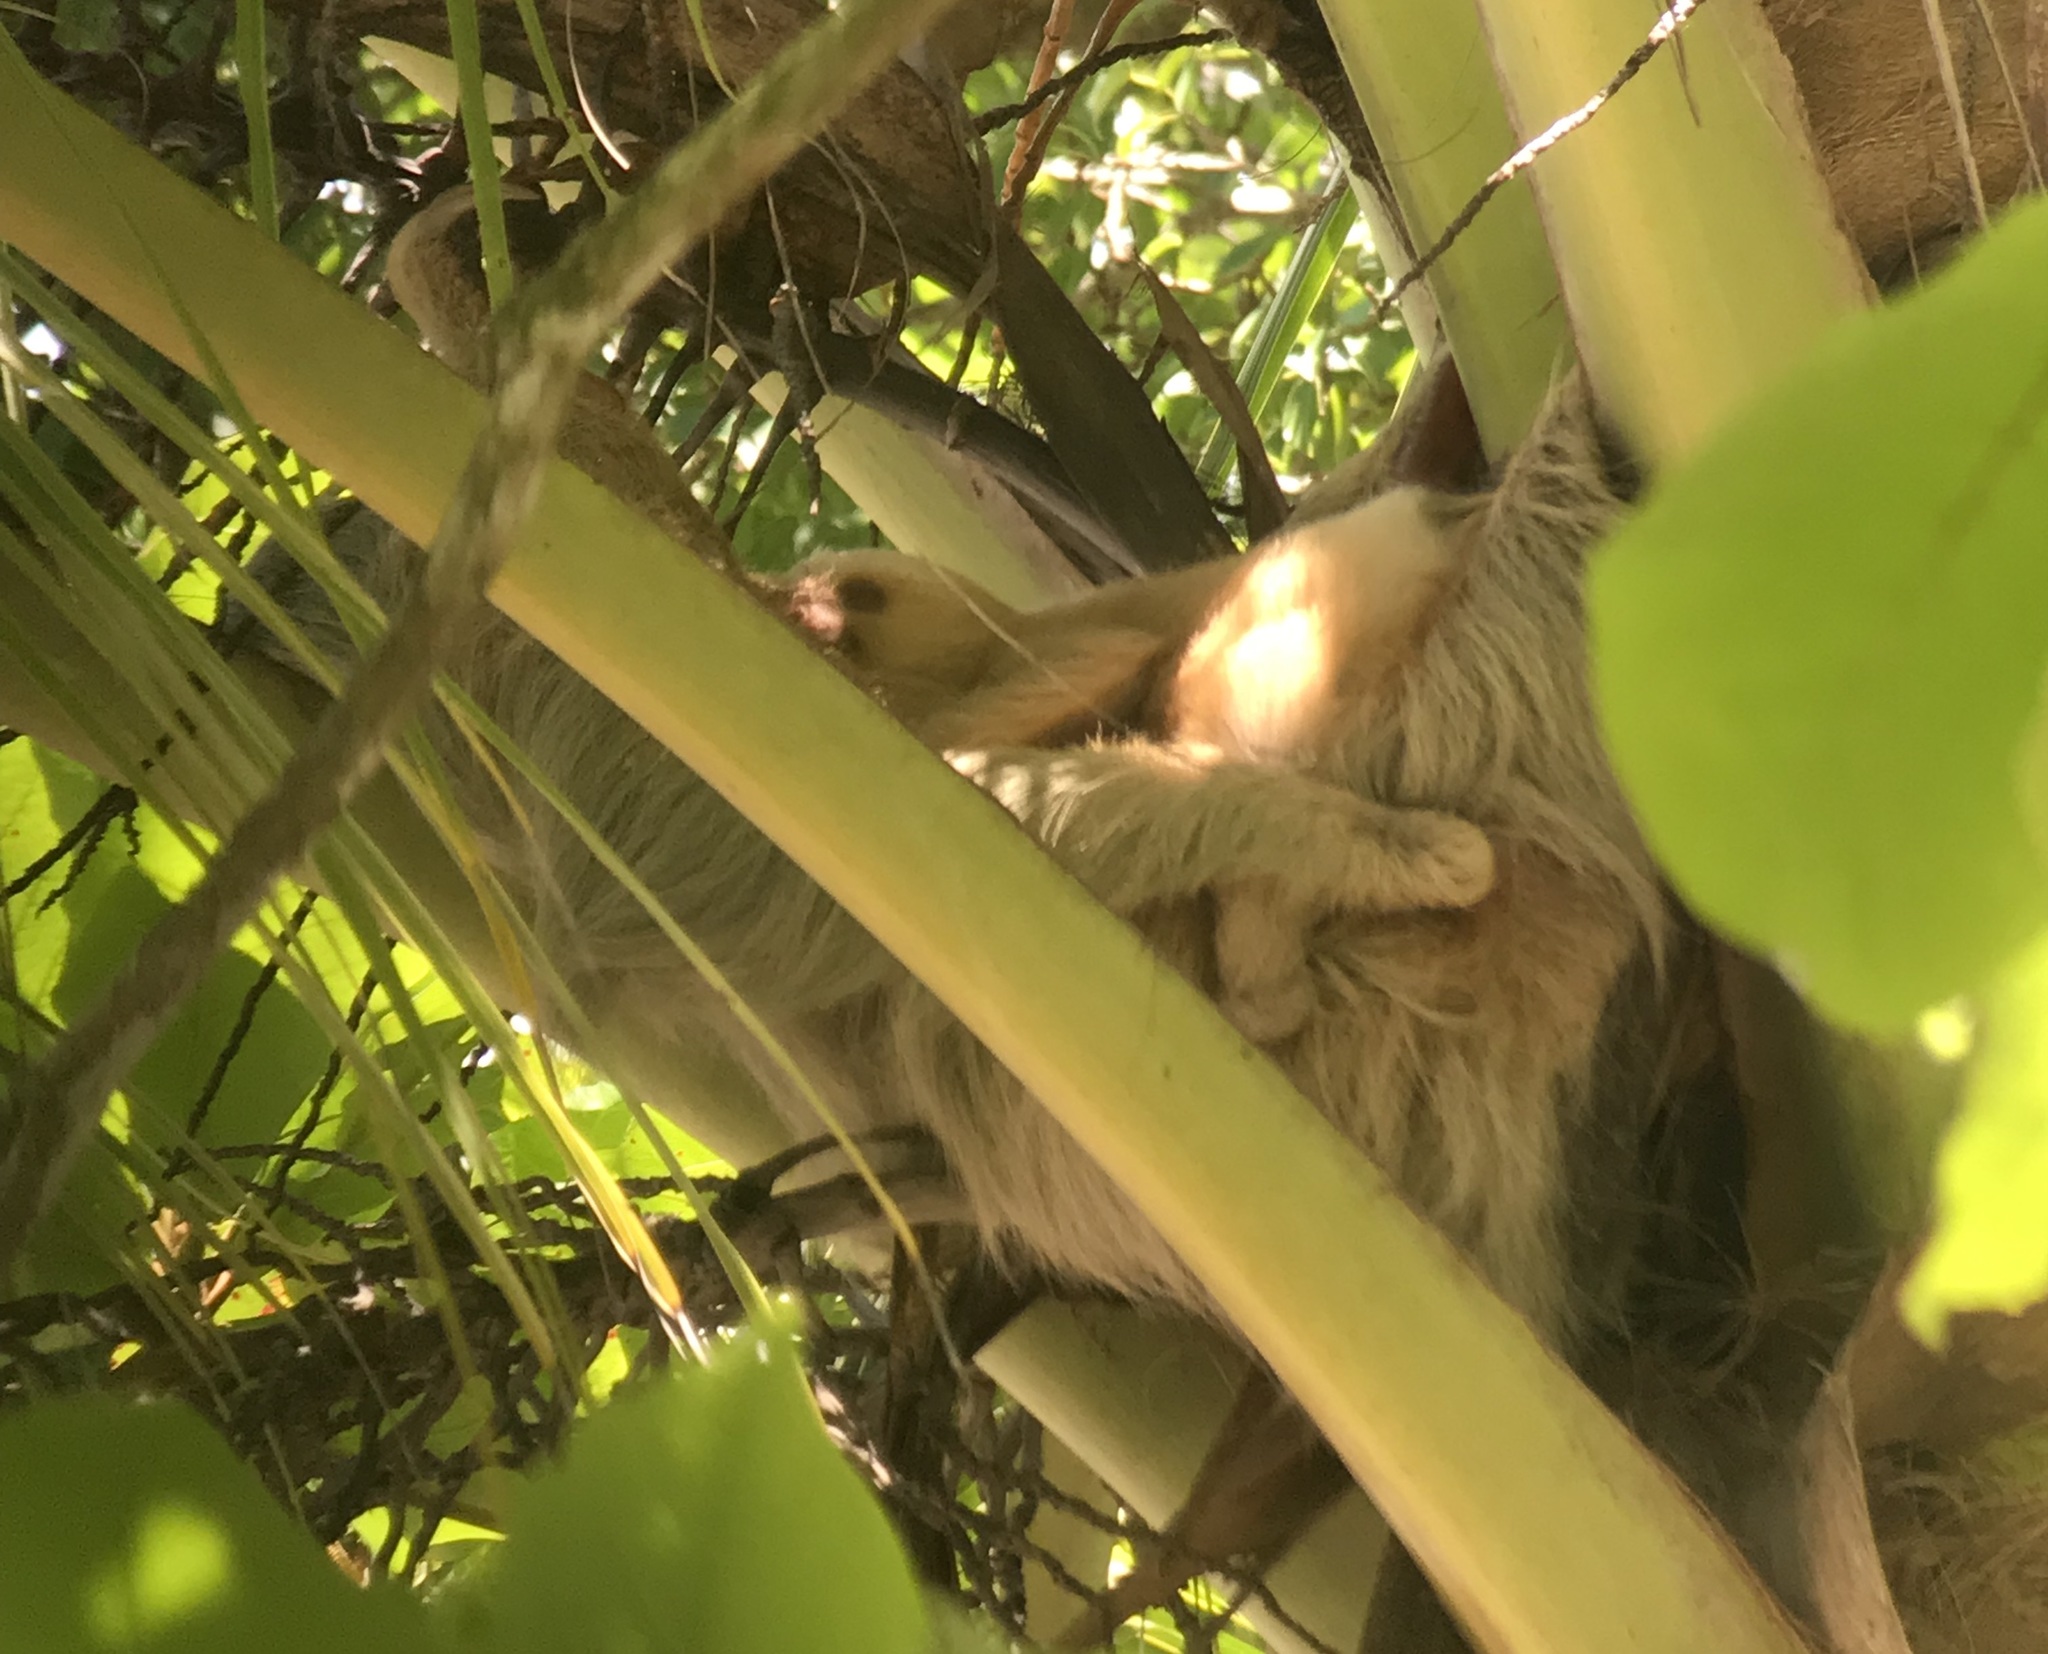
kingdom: Animalia
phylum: Chordata
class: Mammalia
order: Pilosa
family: Megalonychidae
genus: Choloepus
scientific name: Choloepus hoffmanni
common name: Hoffmann's two-toed sloth
